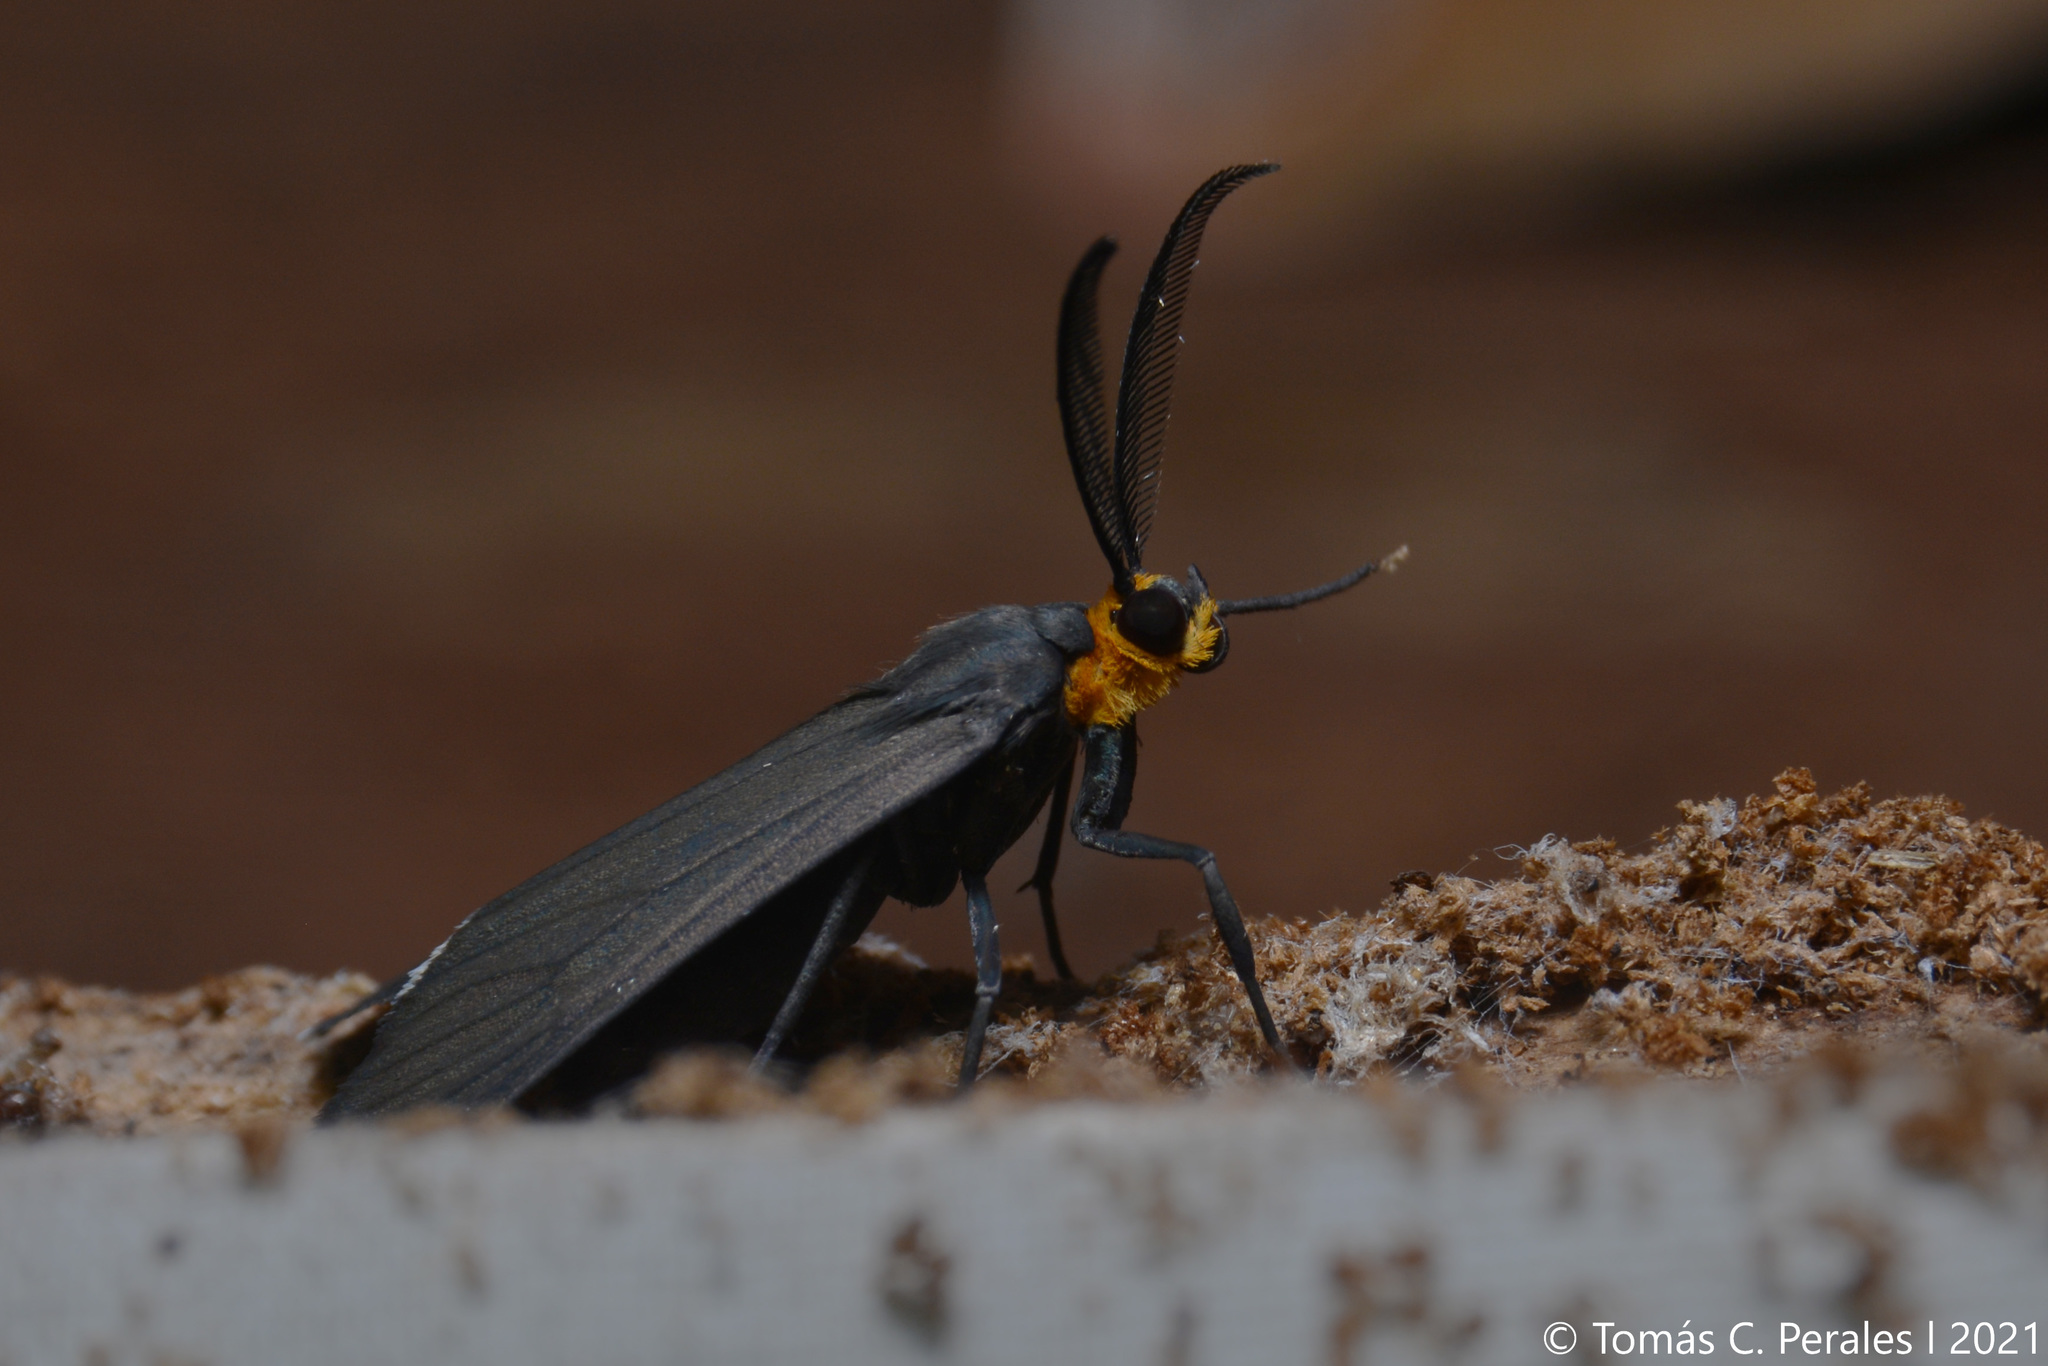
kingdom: Animalia
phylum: Arthropoda
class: Insecta
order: Lepidoptera
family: Erebidae
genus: Ctenucha
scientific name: Ctenucha rubriceps
